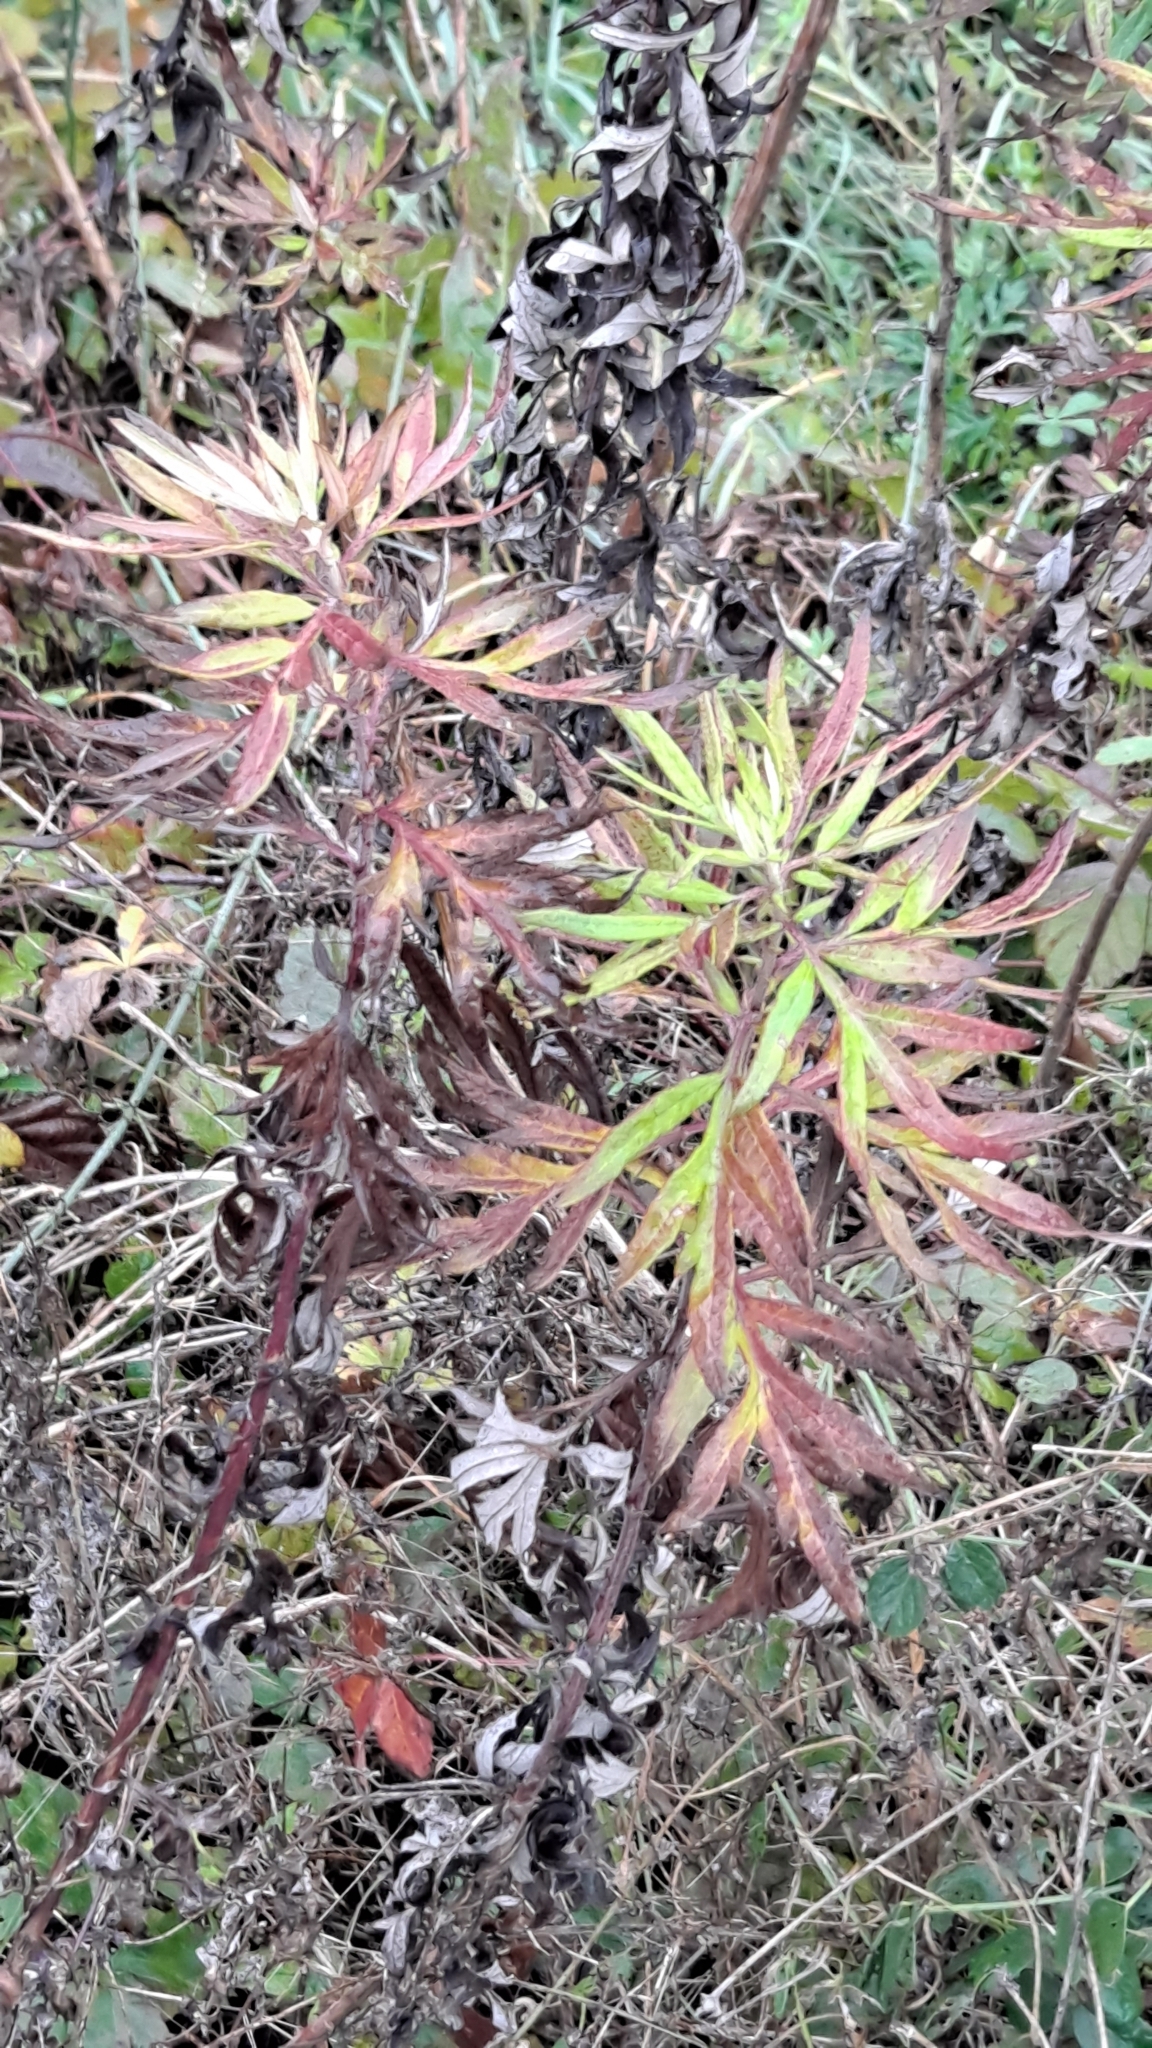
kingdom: Plantae
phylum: Tracheophyta
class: Magnoliopsida
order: Asterales
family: Asteraceae
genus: Artemisia
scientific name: Artemisia verlotiorum
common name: Chinese mugwort
